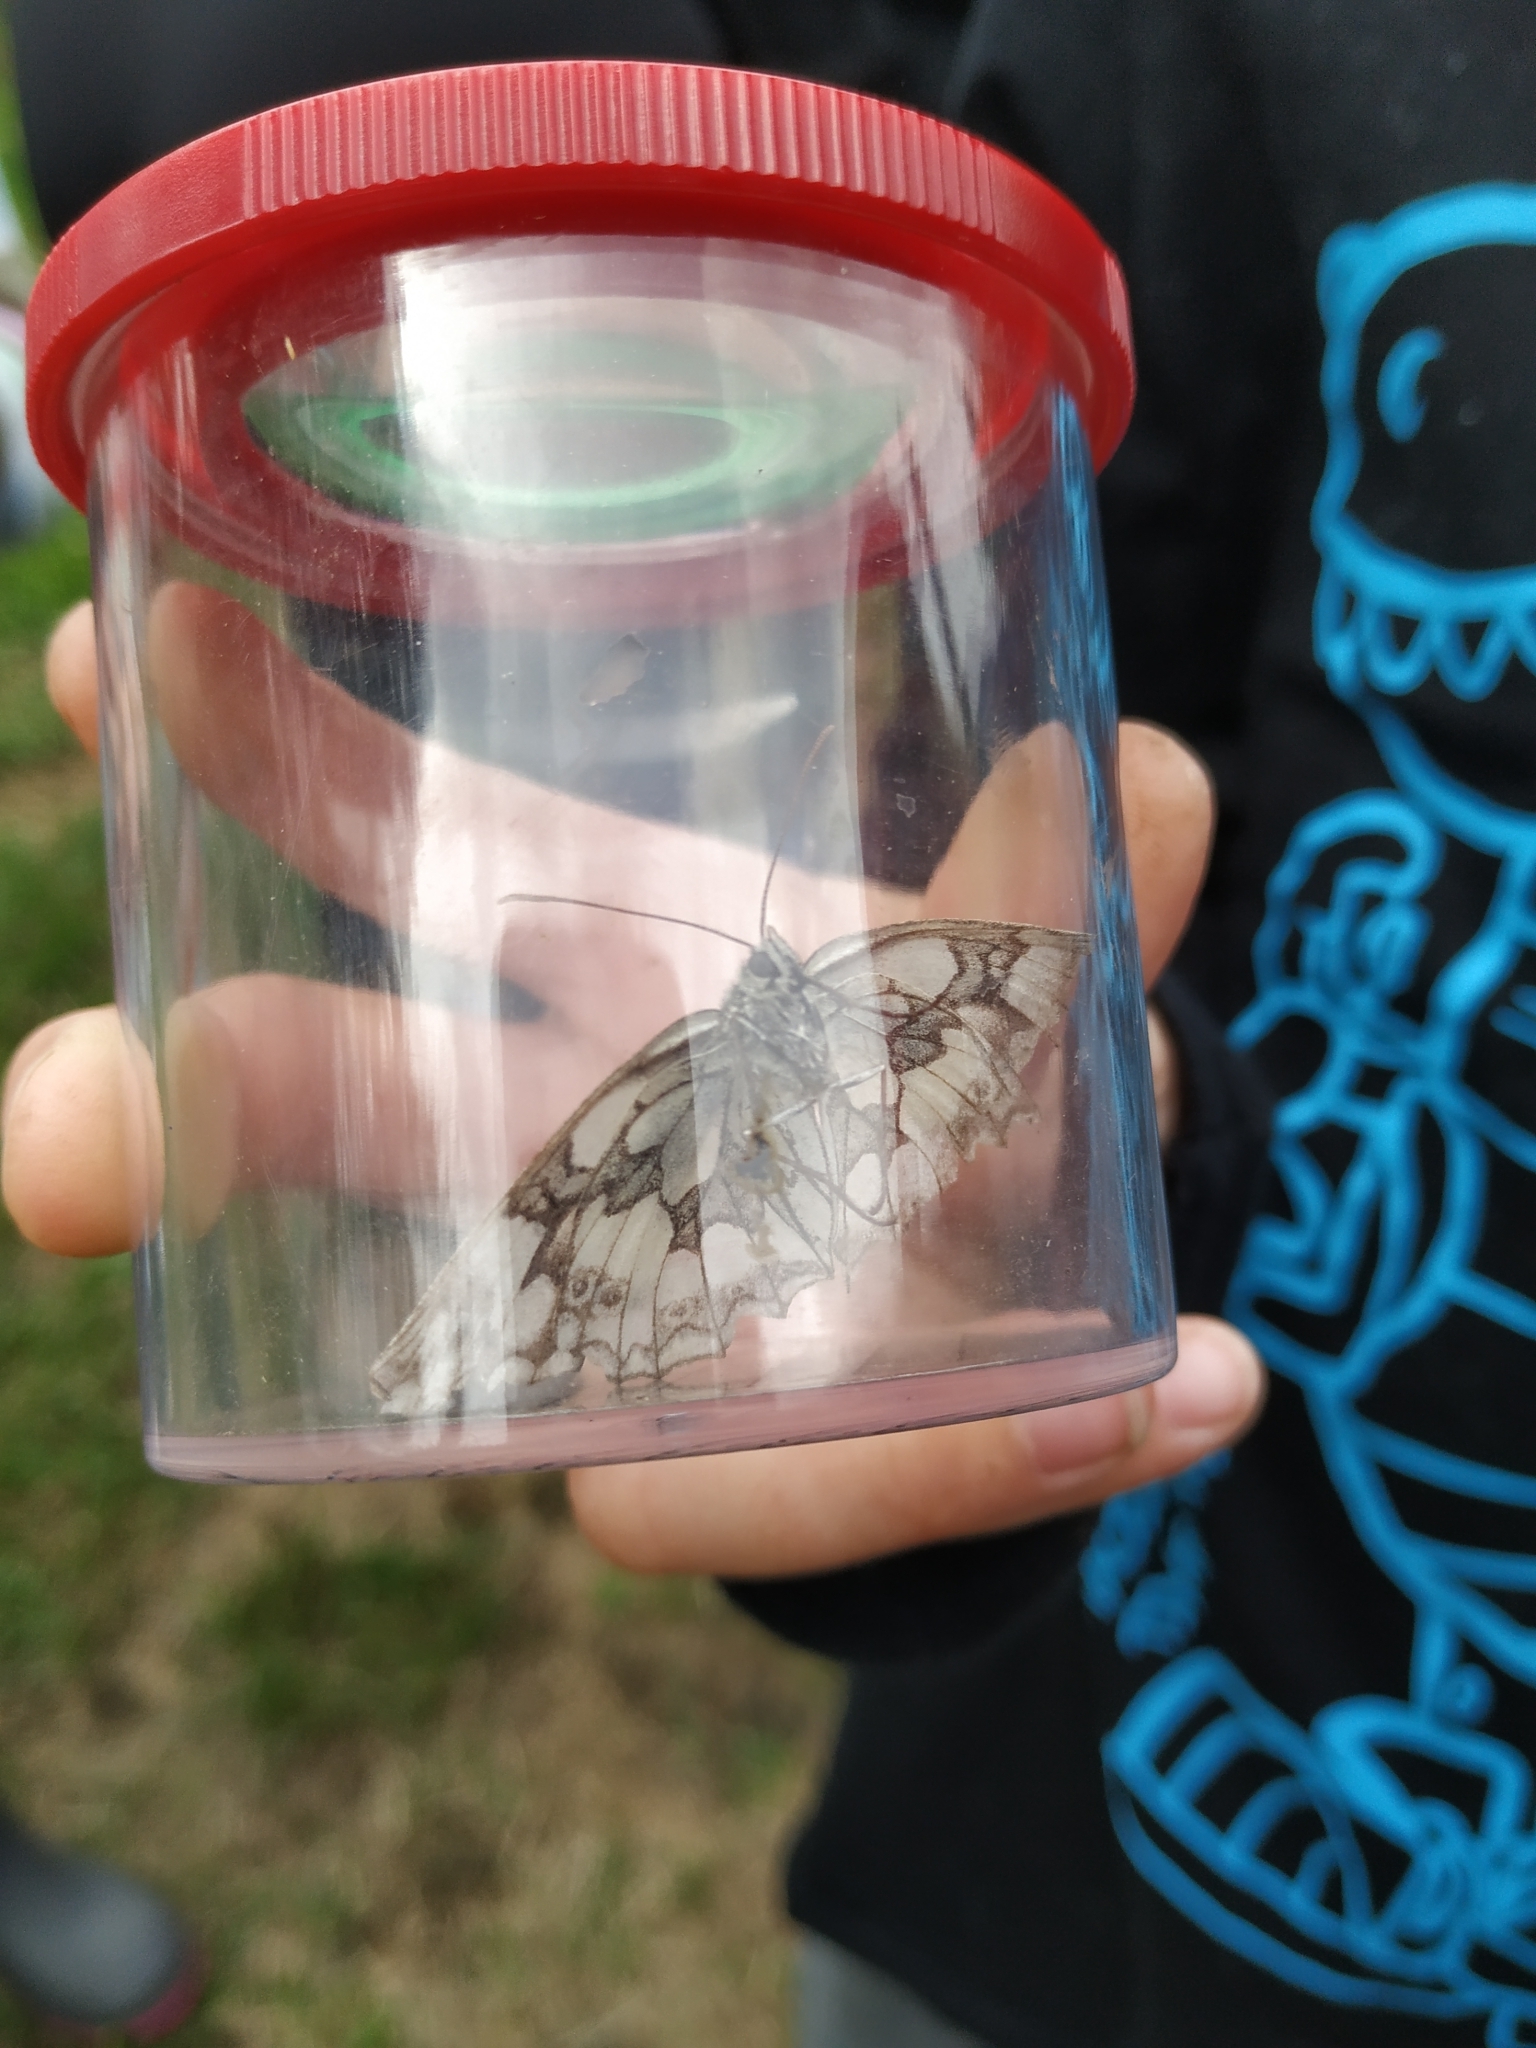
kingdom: Animalia
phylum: Arthropoda
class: Insecta
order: Lepidoptera
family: Nymphalidae
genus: Melanargia
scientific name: Melanargia galathea
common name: Marbled white
